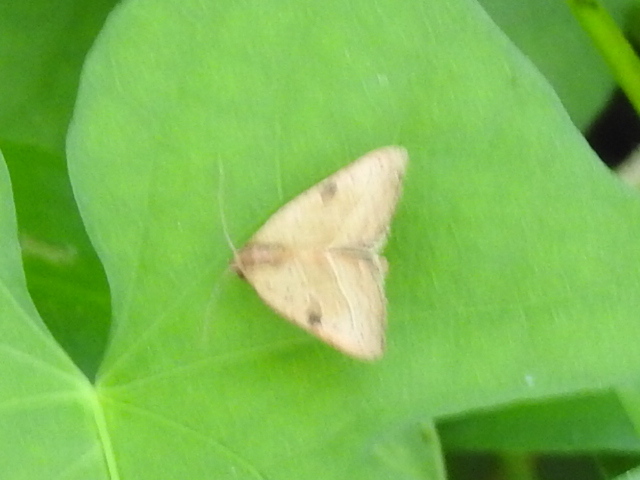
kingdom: Animalia
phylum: Arthropoda
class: Insecta
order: Lepidoptera
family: Noctuidae
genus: Galgula
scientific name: Galgula partita
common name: Wedgeling
